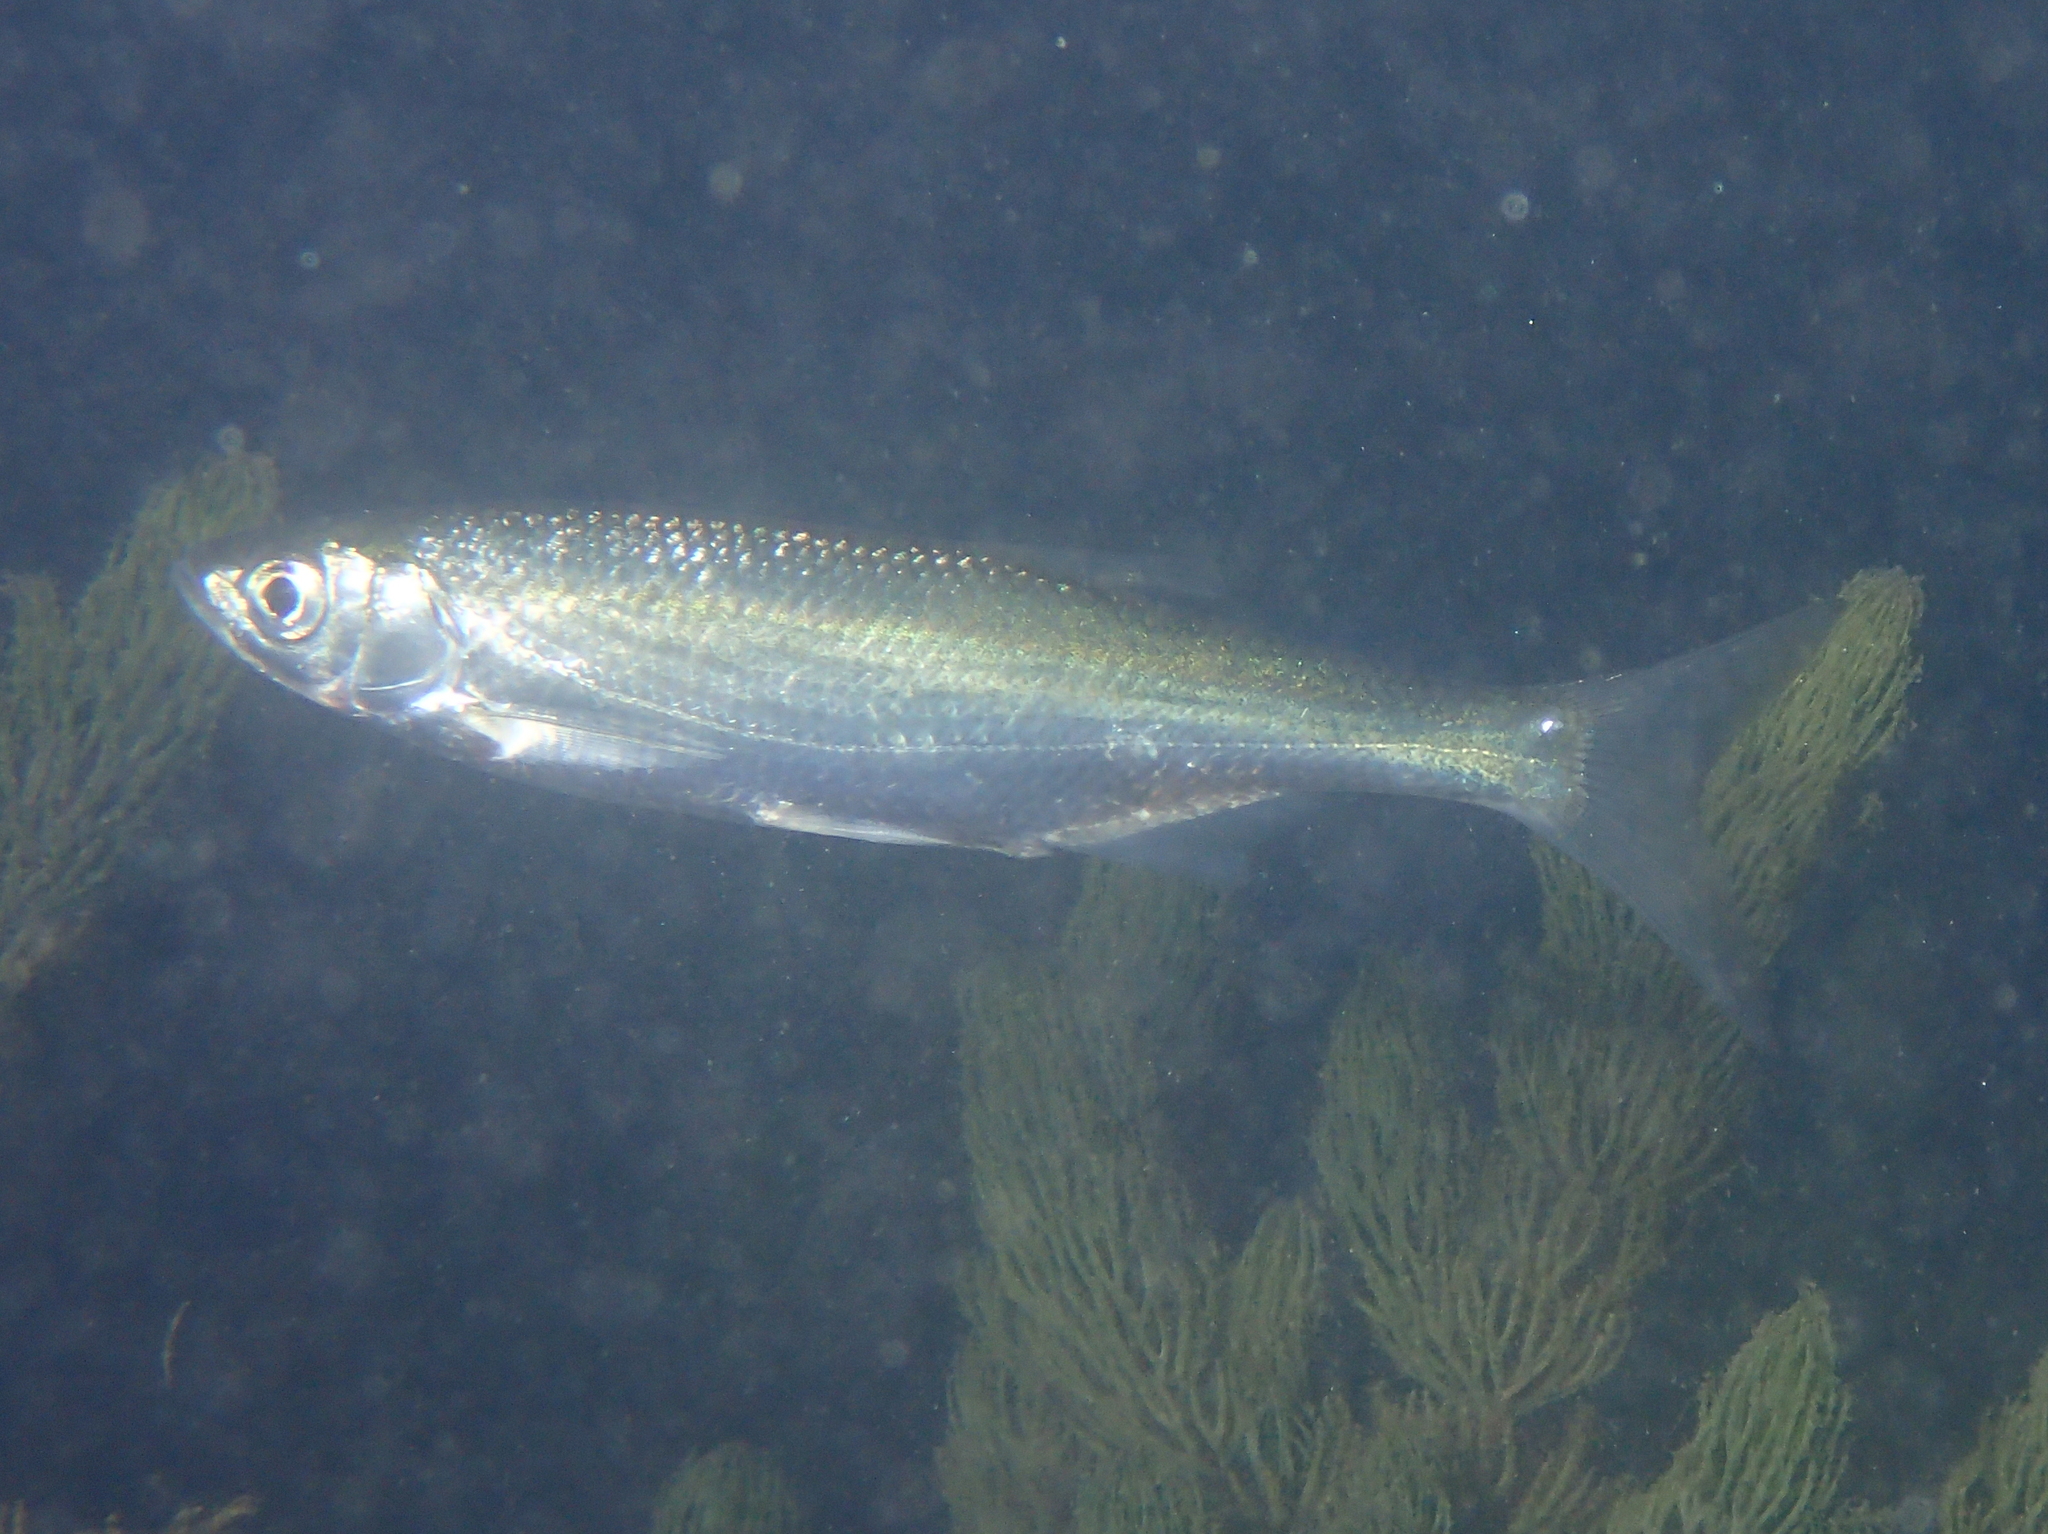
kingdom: Animalia
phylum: Chordata
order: Cypriniformes
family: Cyprinidae
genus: Alburnus
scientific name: Alburnus alburnus
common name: Bleak
